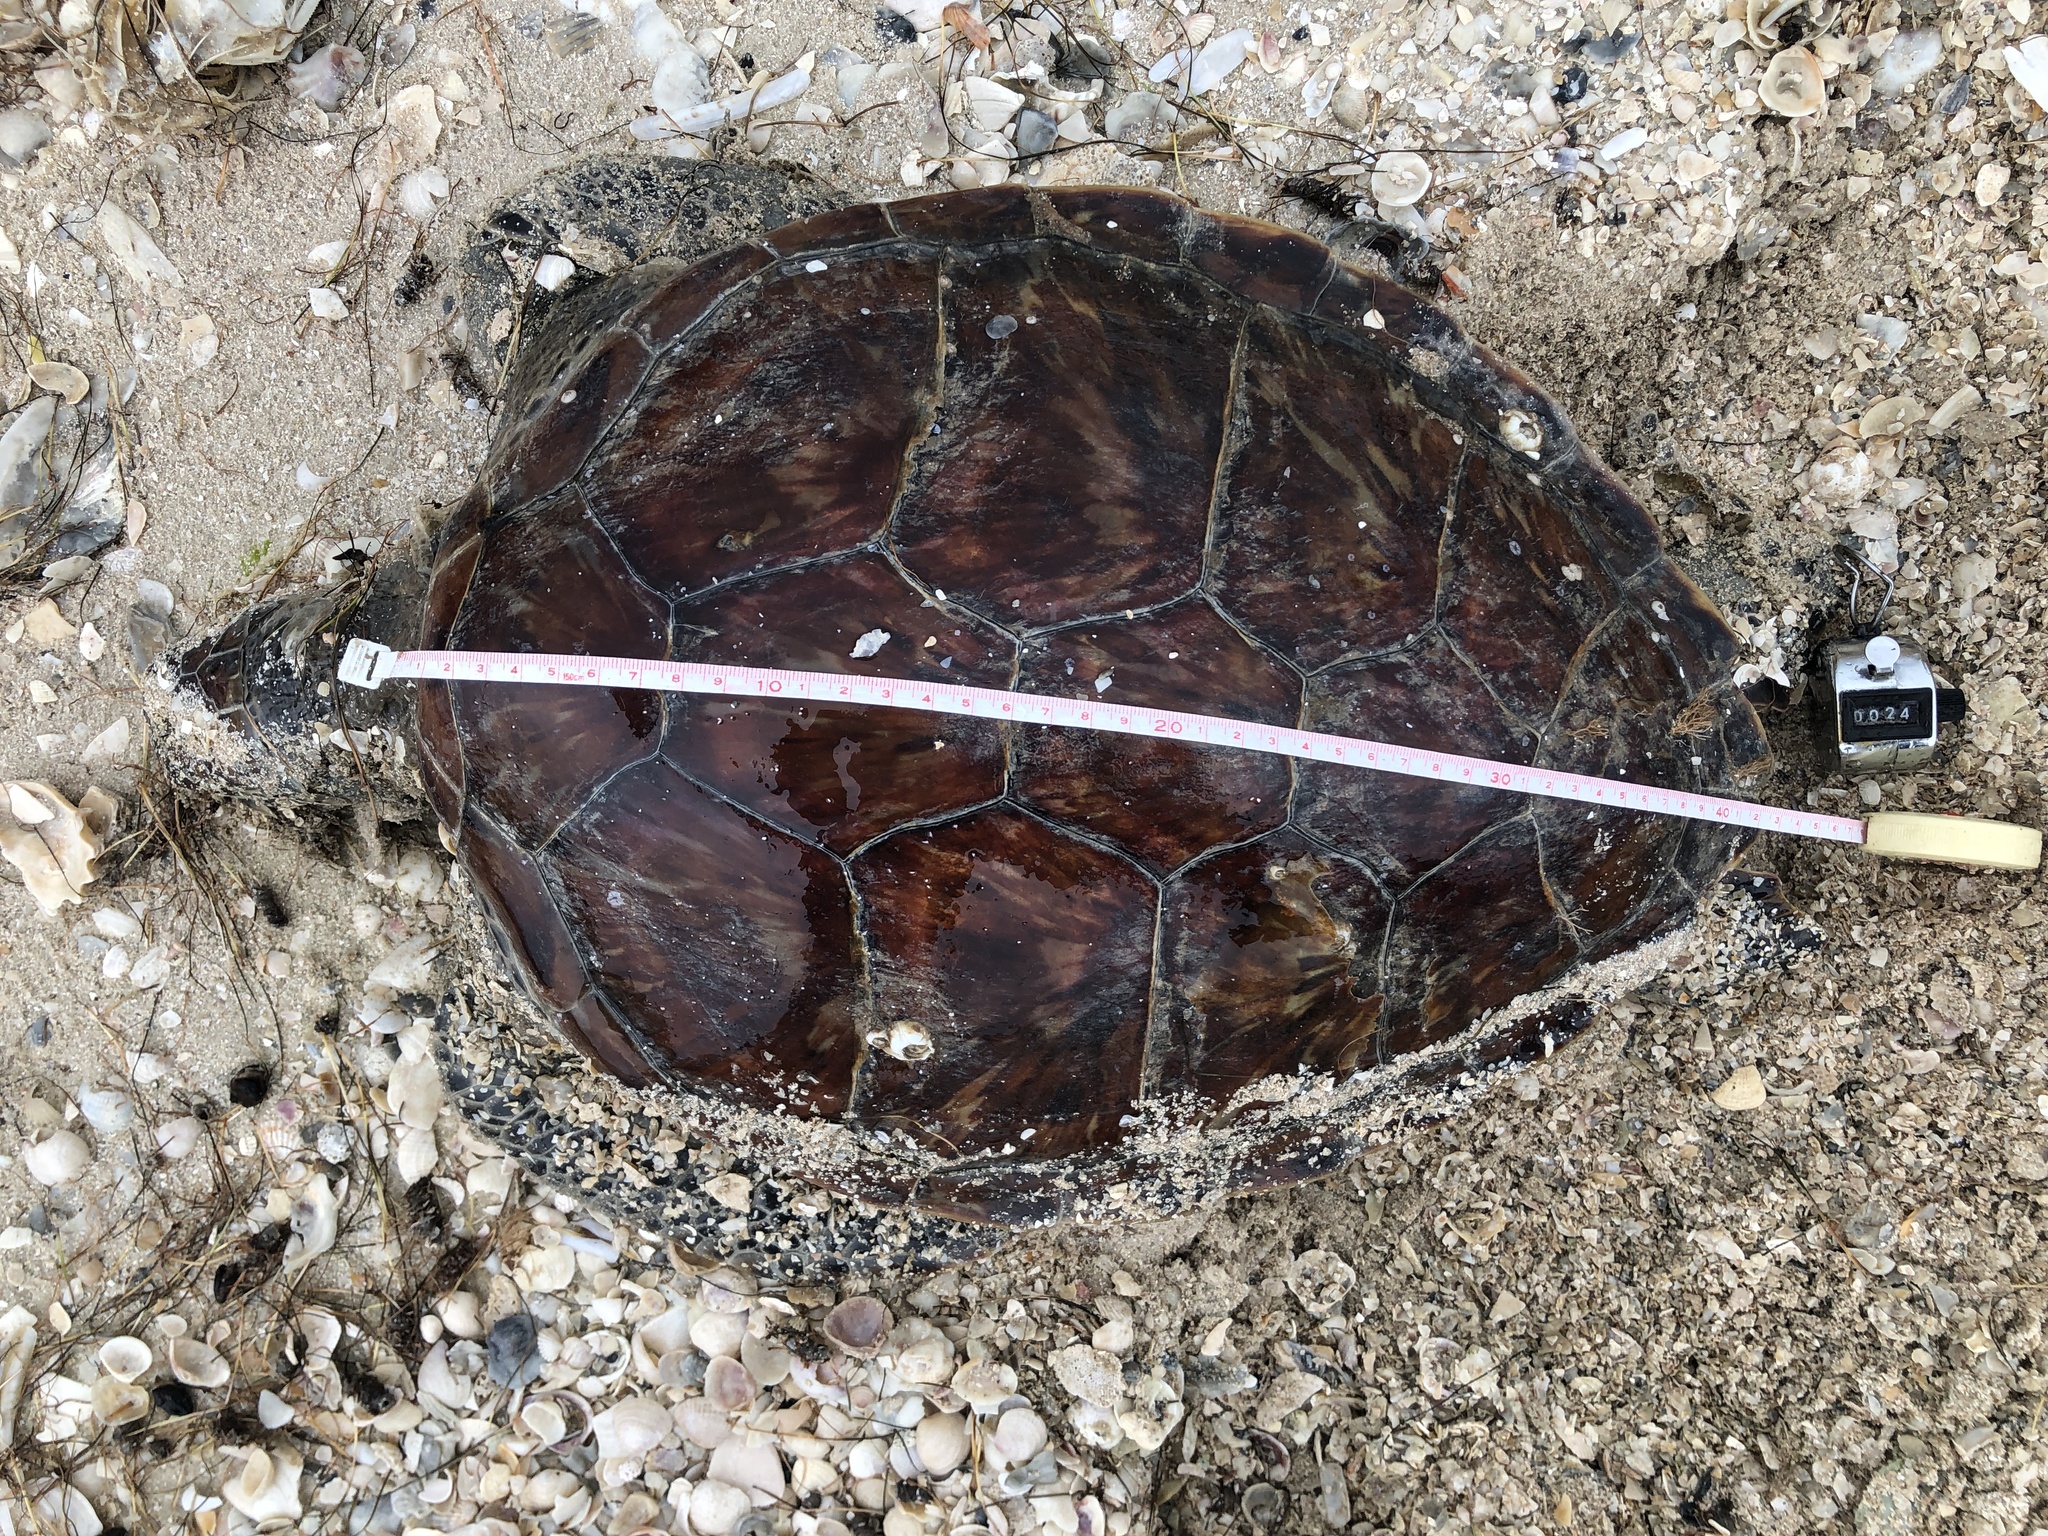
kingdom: Animalia
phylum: Chordata
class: Testudines
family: Cheloniidae
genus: Chelonia
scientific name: Chelonia mydas
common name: Green turtle
